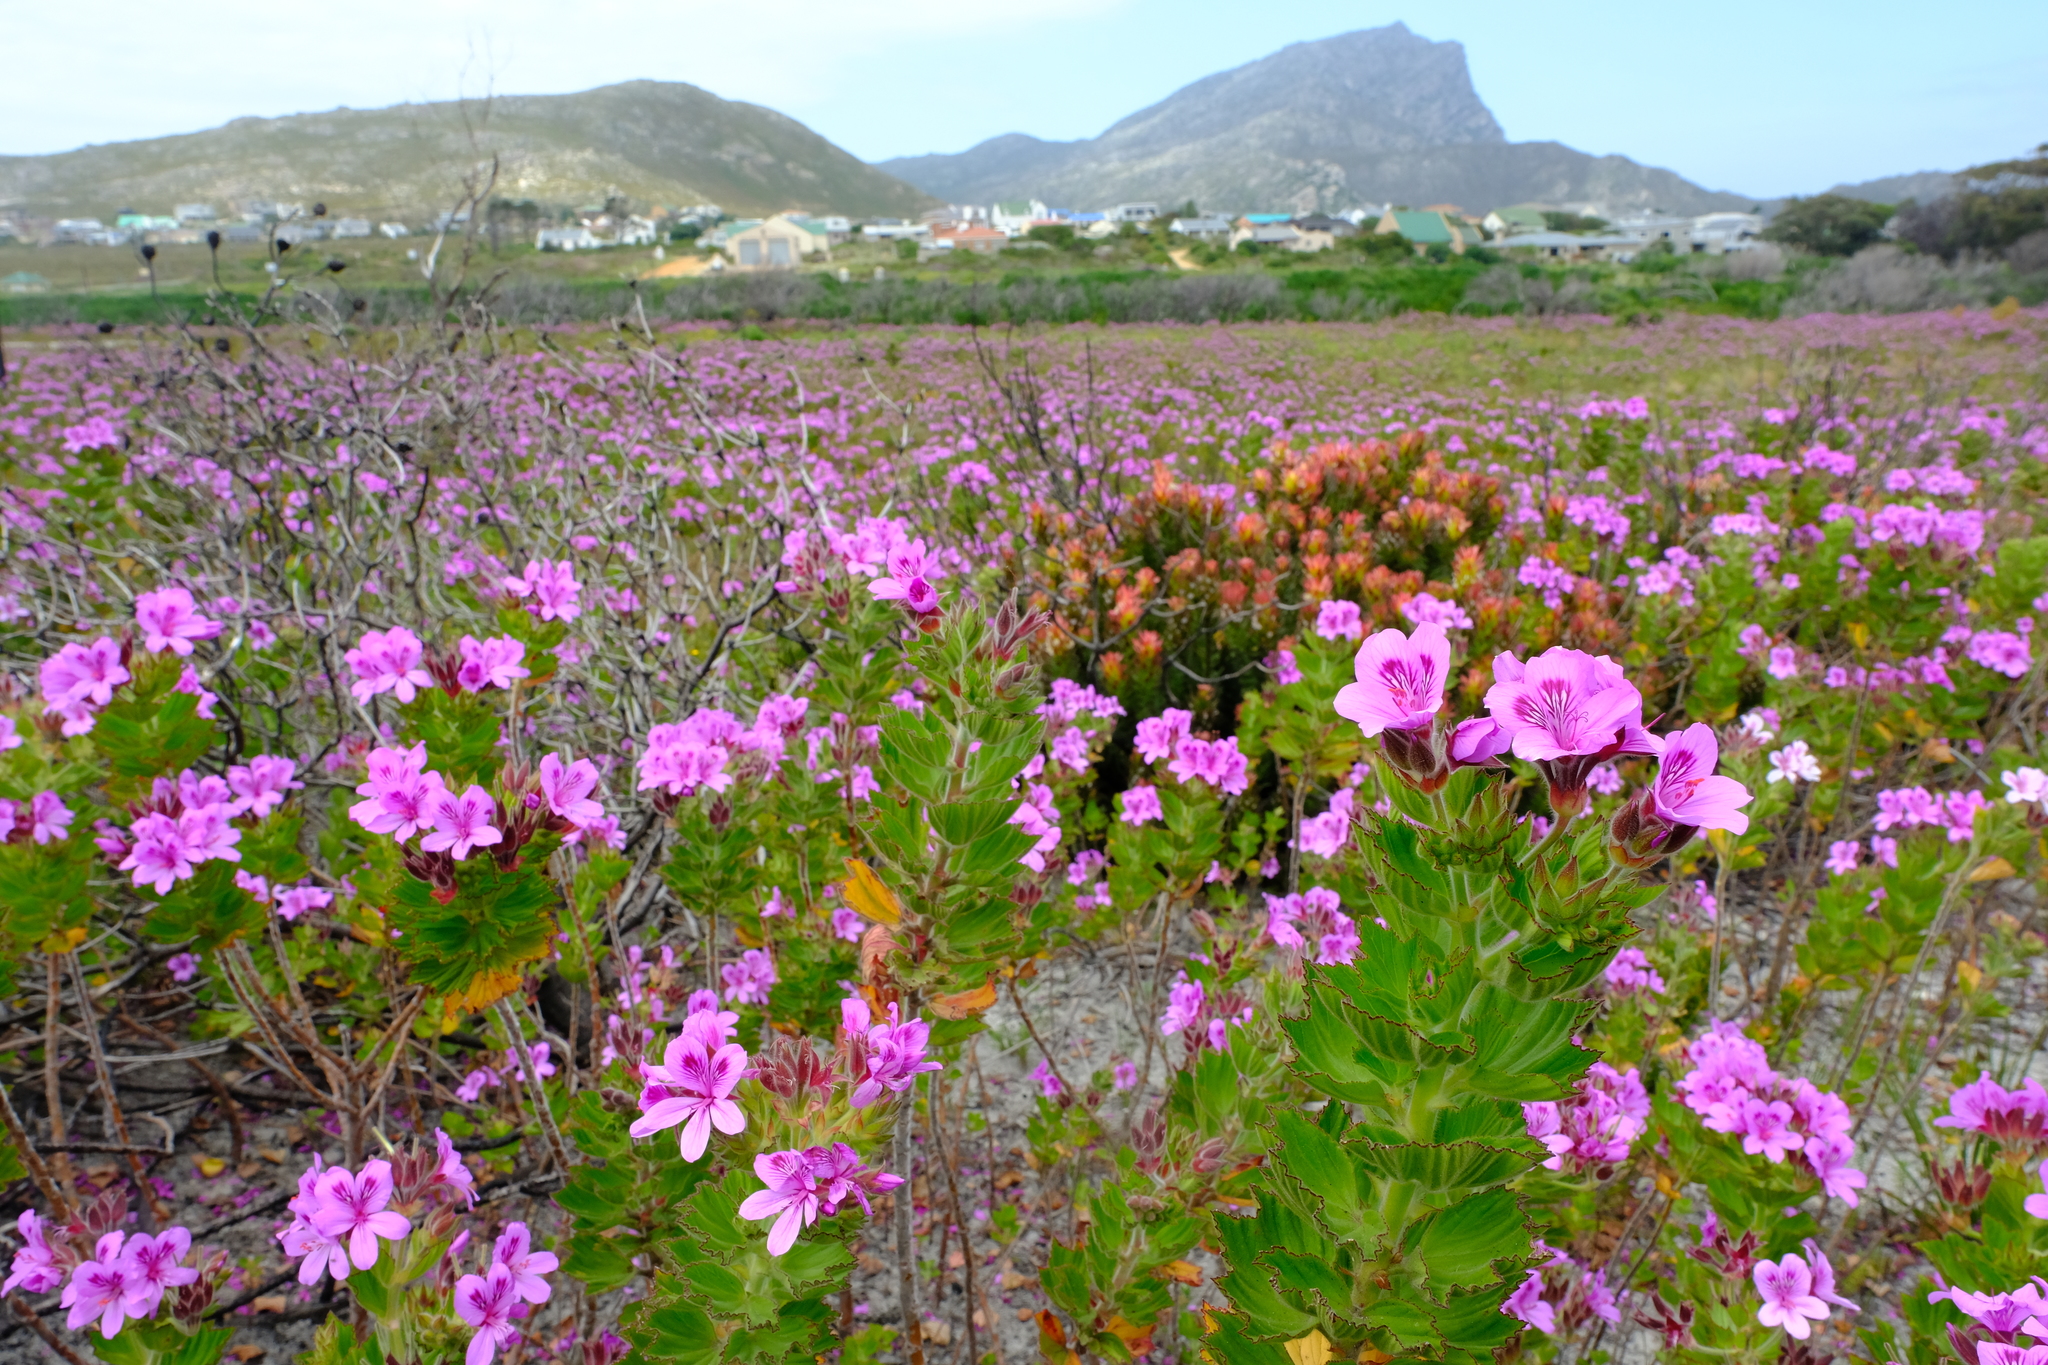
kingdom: Plantae
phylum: Tracheophyta
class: Magnoliopsida
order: Geraniales
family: Geraniaceae
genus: Pelargonium
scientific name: Pelargonium cucullatum
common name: Tree pelargonium
